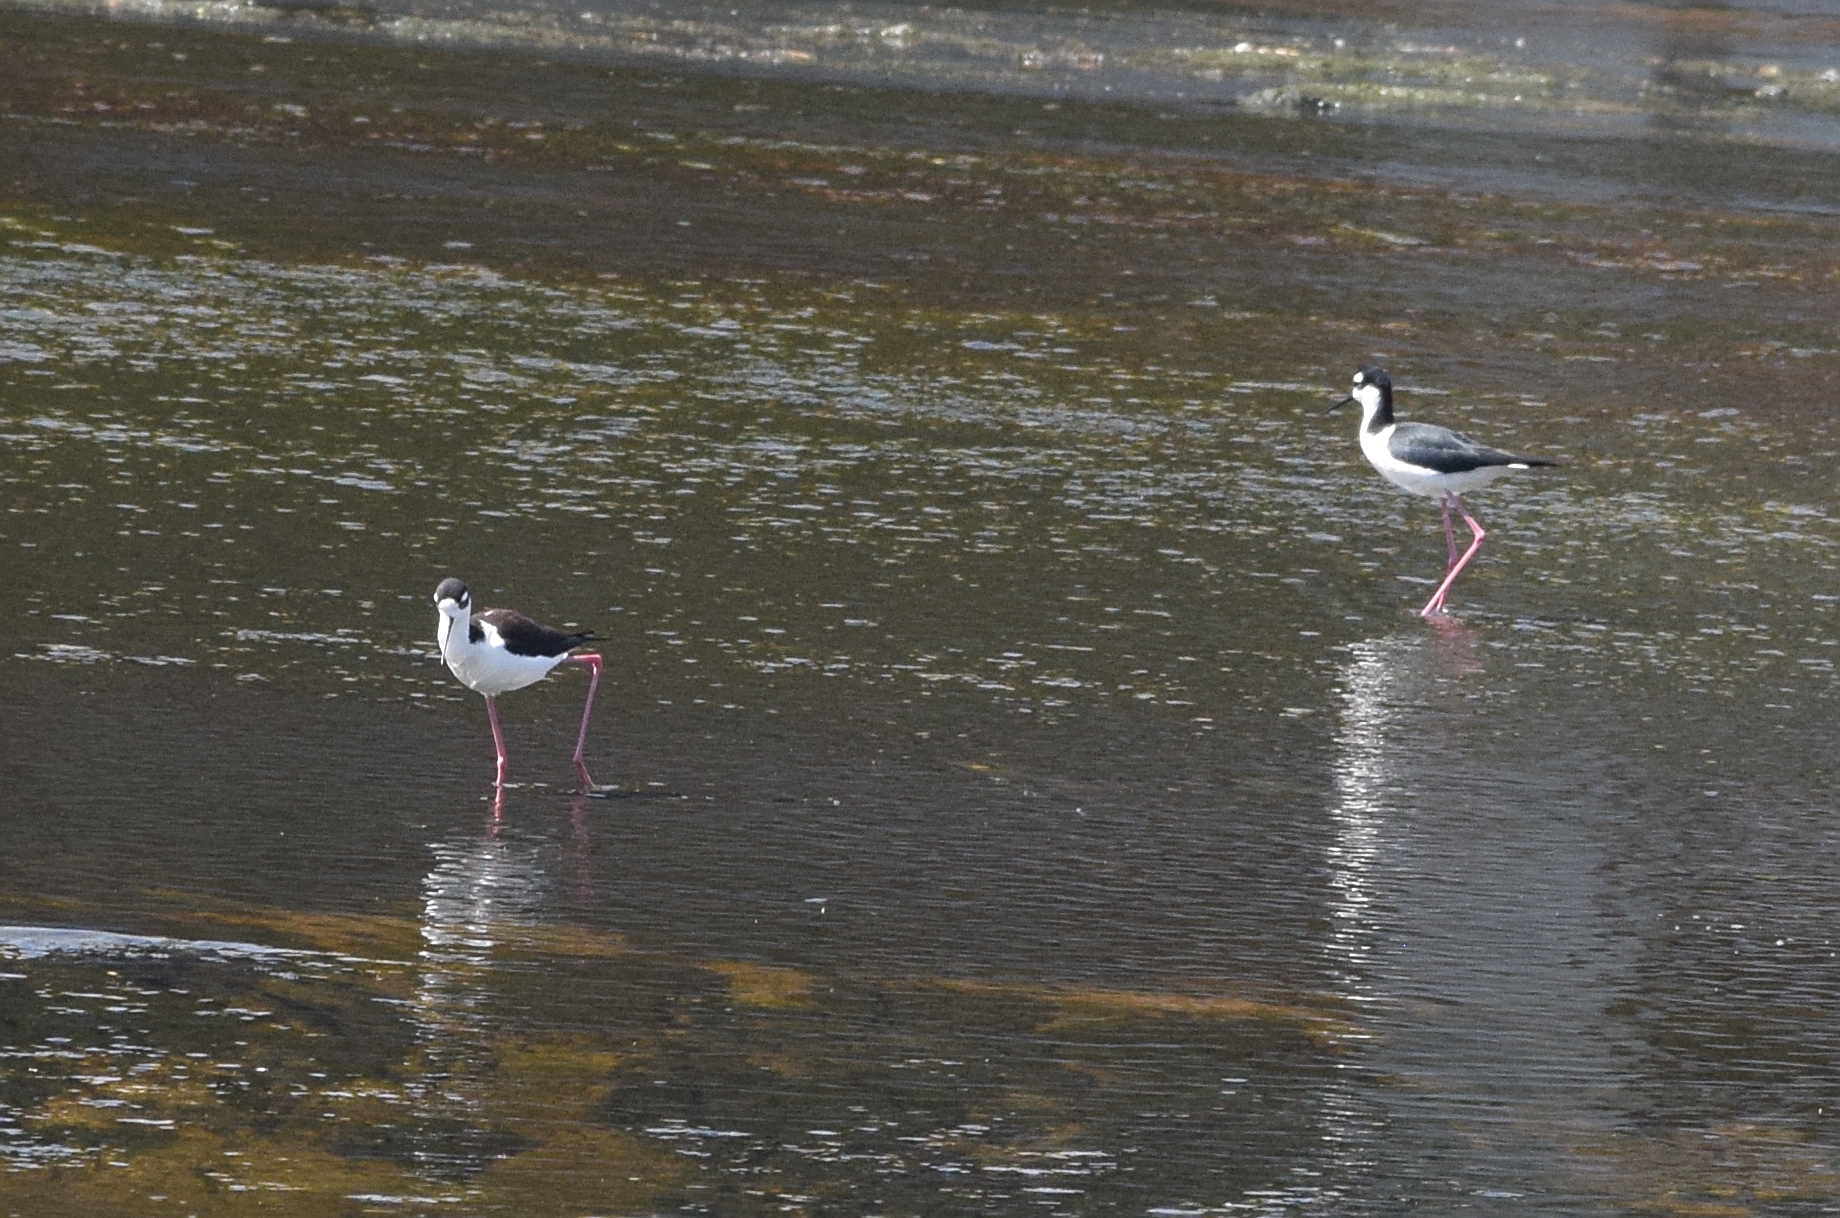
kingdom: Animalia
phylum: Chordata
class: Aves
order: Charadriiformes
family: Recurvirostridae
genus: Himantopus
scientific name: Himantopus mexicanus
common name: Black-necked stilt
